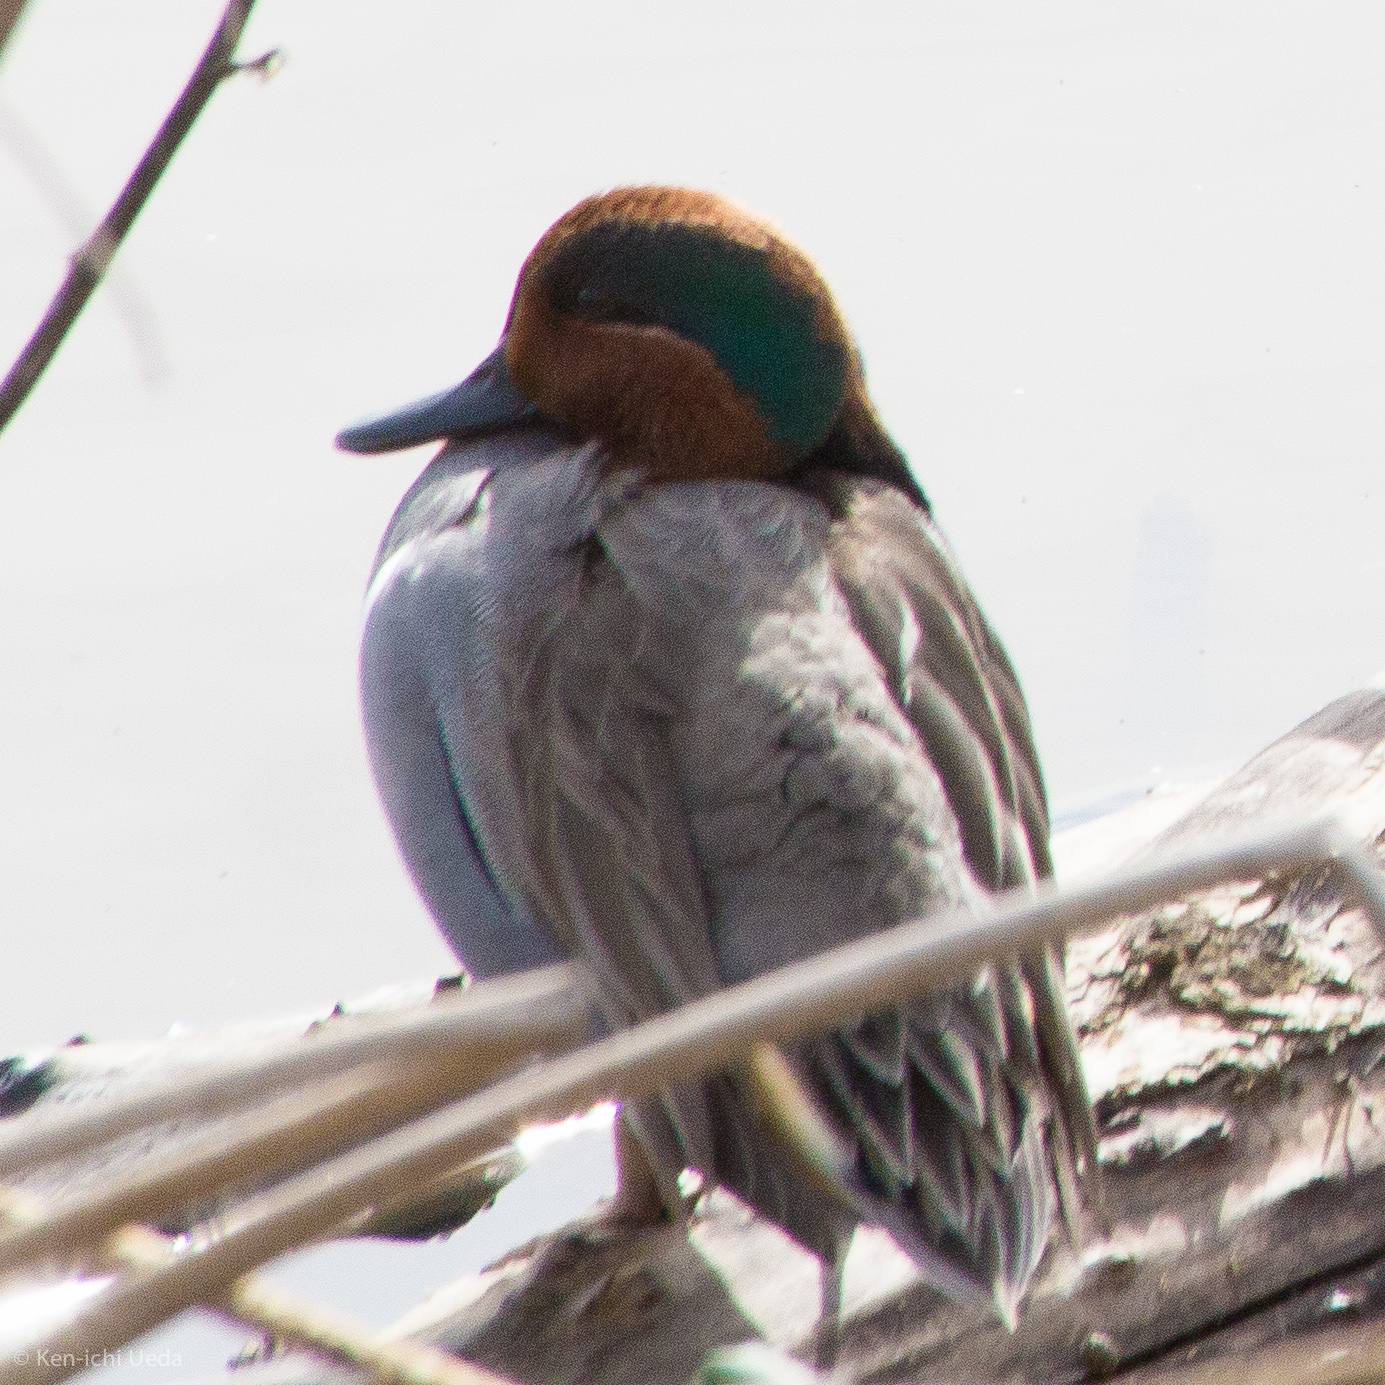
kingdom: Animalia
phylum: Chordata
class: Aves
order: Anseriformes
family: Anatidae
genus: Anas
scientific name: Anas crecca
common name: Eurasian teal
